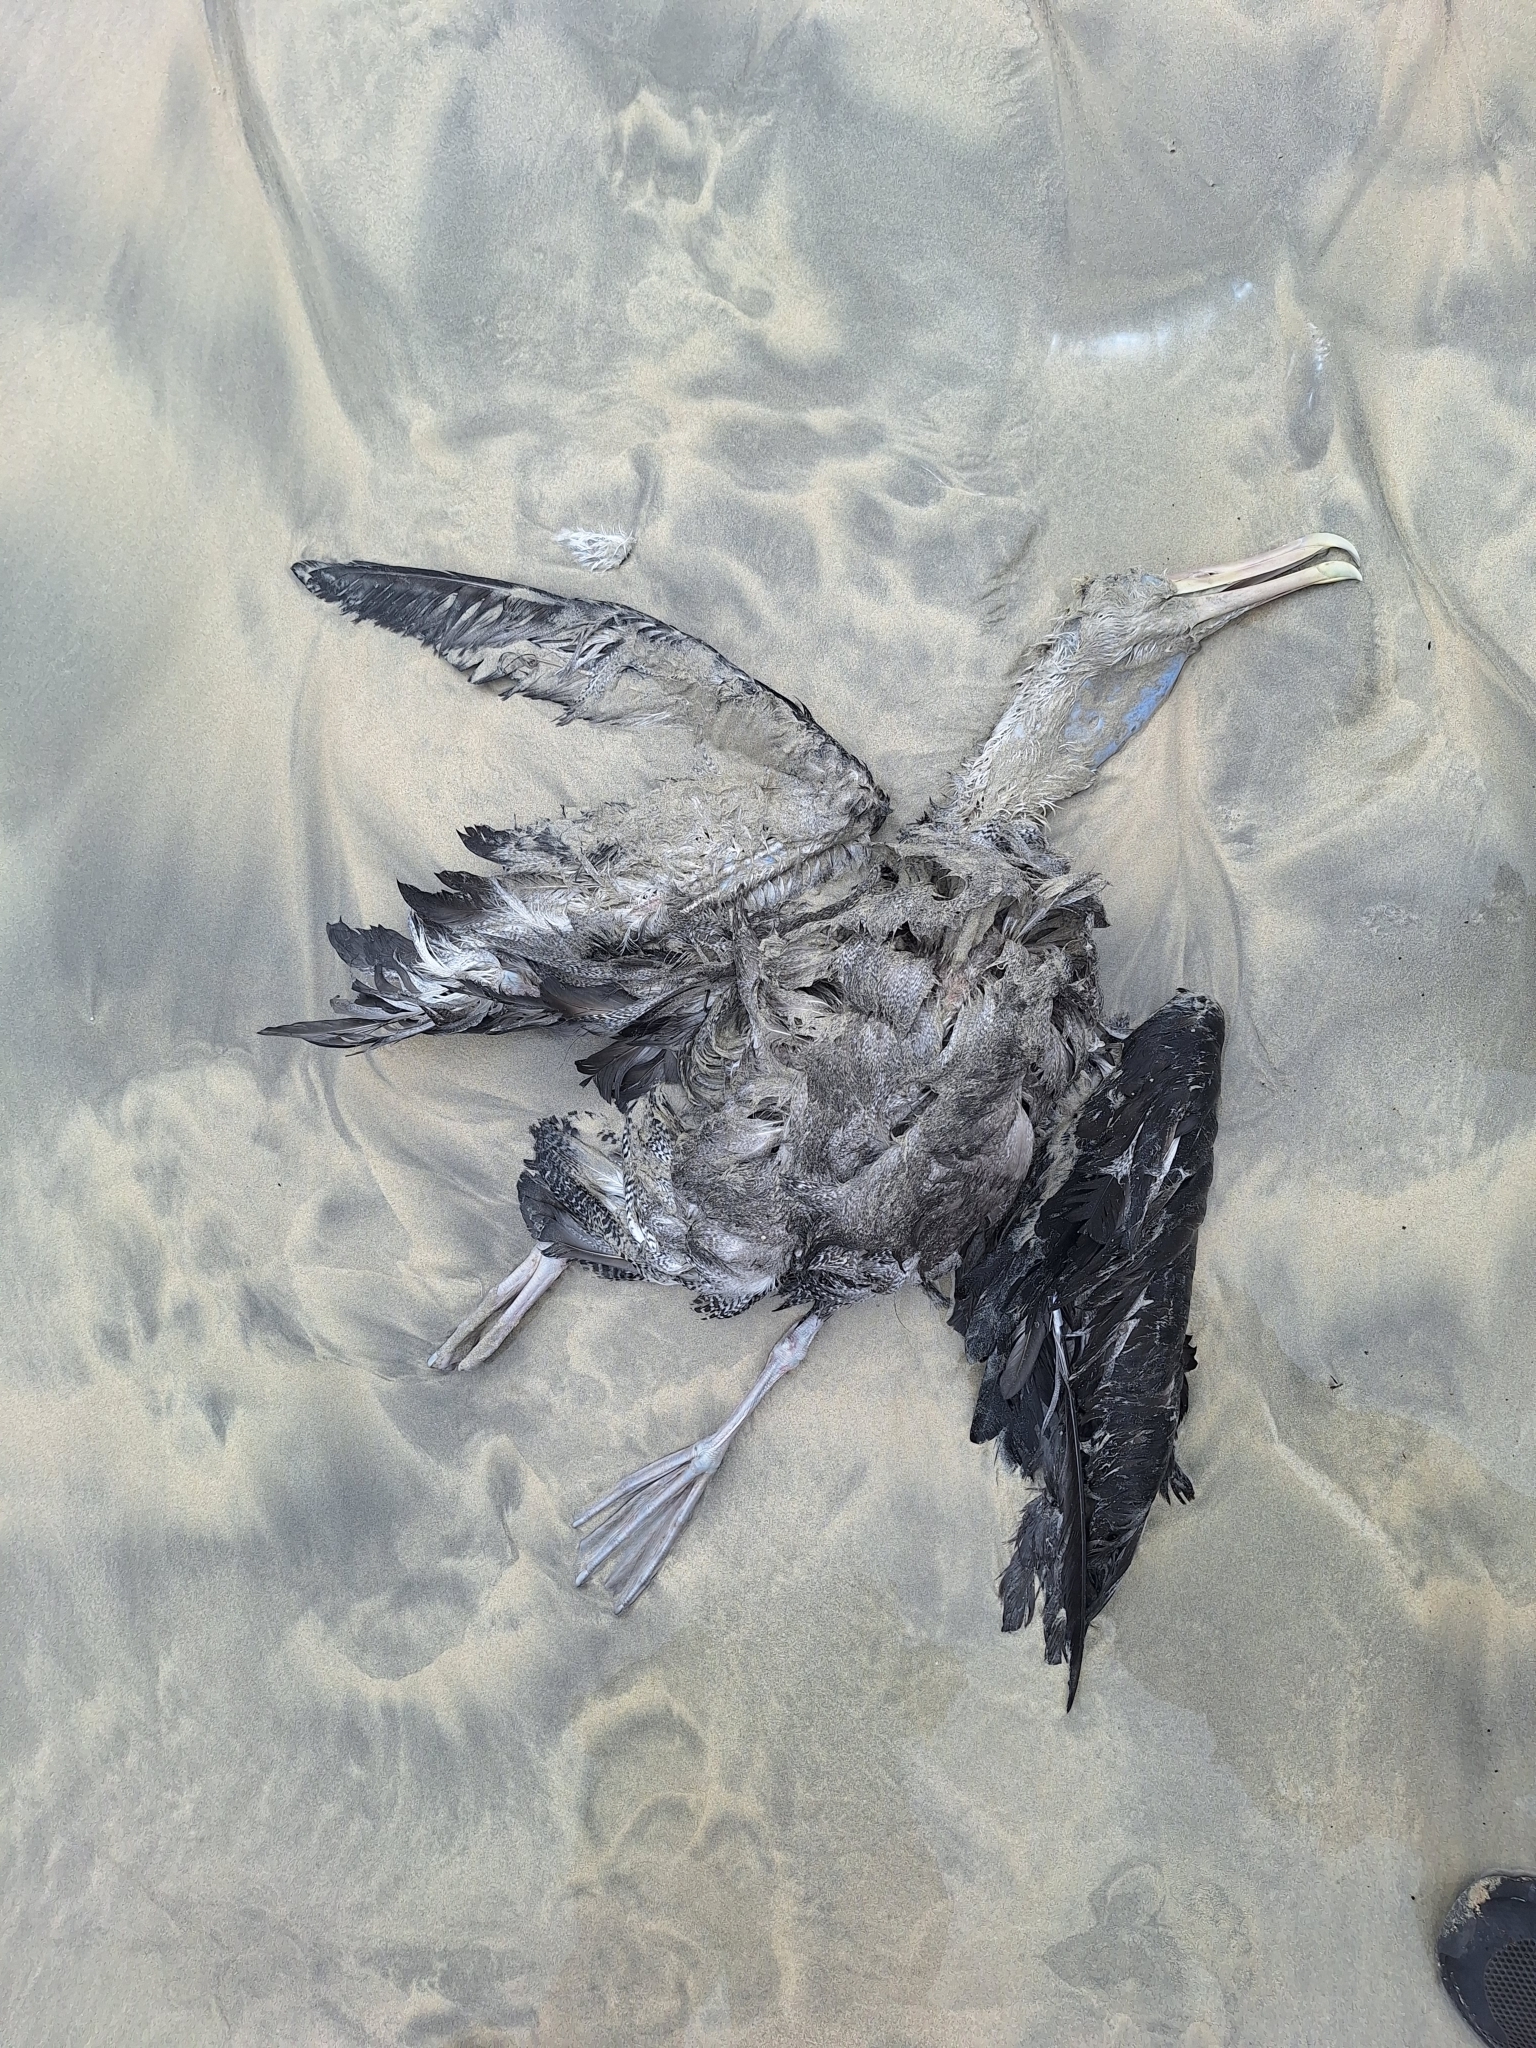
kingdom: Animalia
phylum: Chordata
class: Aves
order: Procellariiformes
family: Diomedeidae
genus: Phoebastria
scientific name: Phoebastria irrorata
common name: Waved albatross
